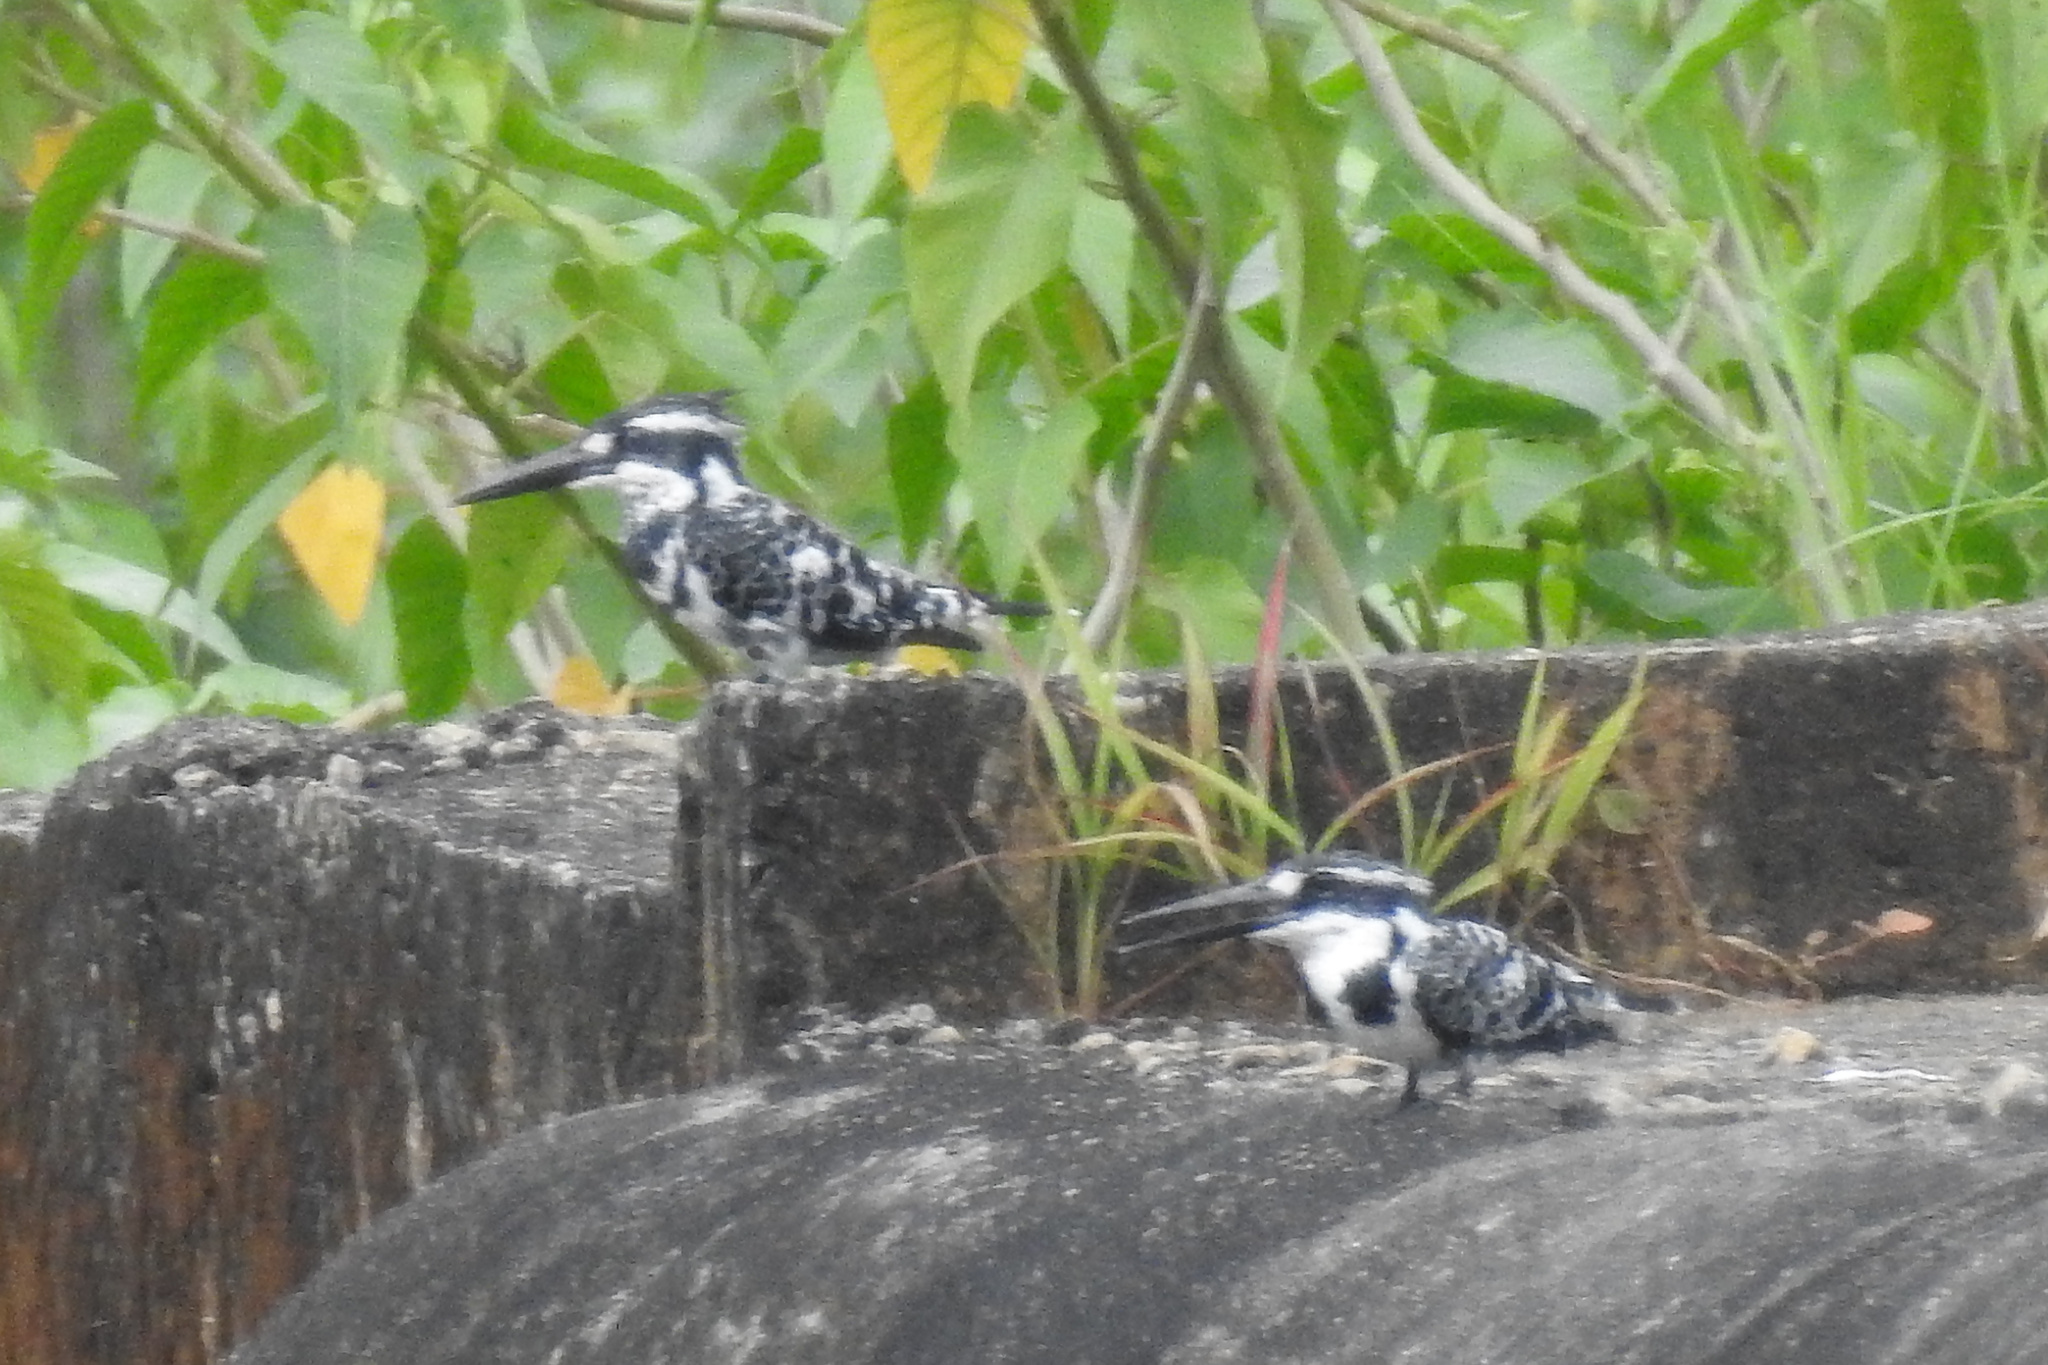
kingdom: Animalia
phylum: Chordata
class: Aves
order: Coraciiformes
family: Alcedinidae
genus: Ceryle
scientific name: Ceryle rudis
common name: Pied kingfisher
